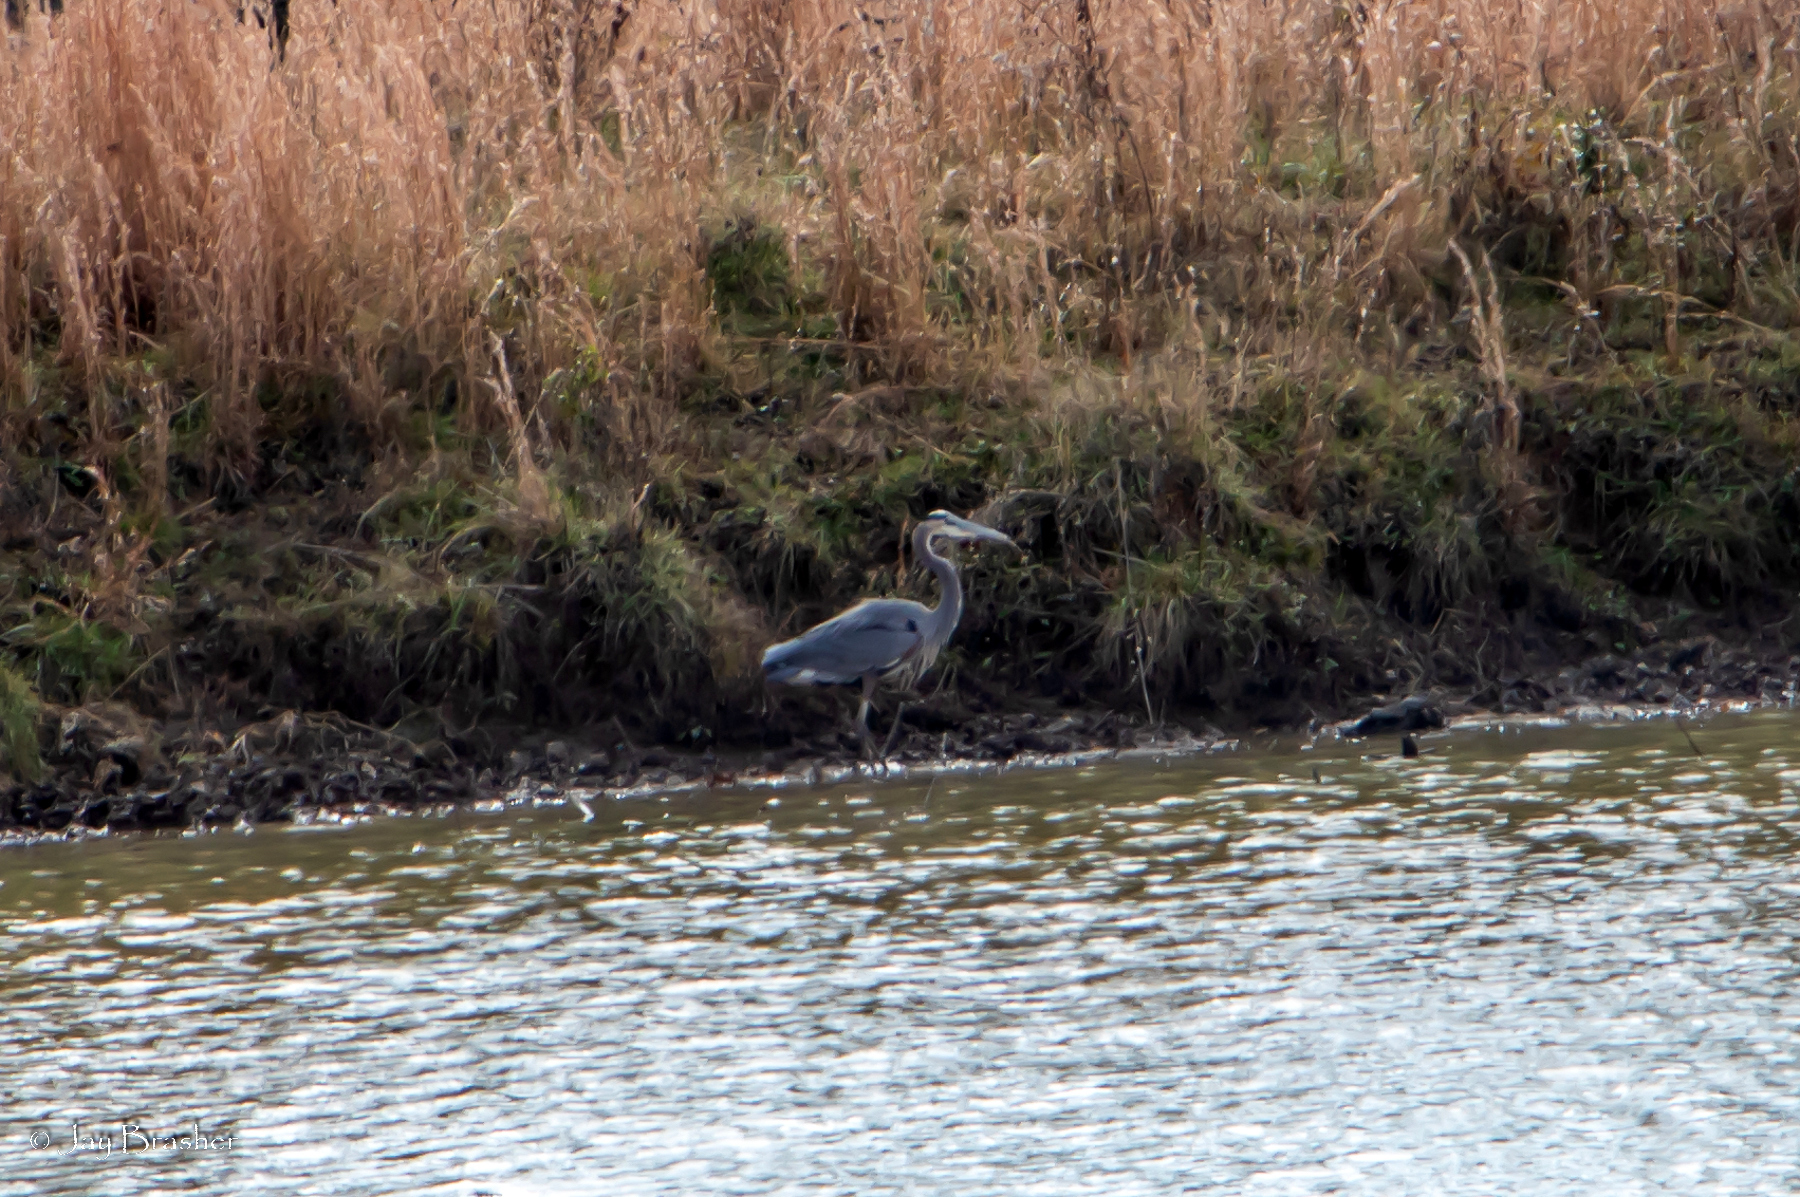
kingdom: Animalia
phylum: Chordata
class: Aves
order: Pelecaniformes
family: Ardeidae
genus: Ardea
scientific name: Ardea herodias
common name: Great blue heron
